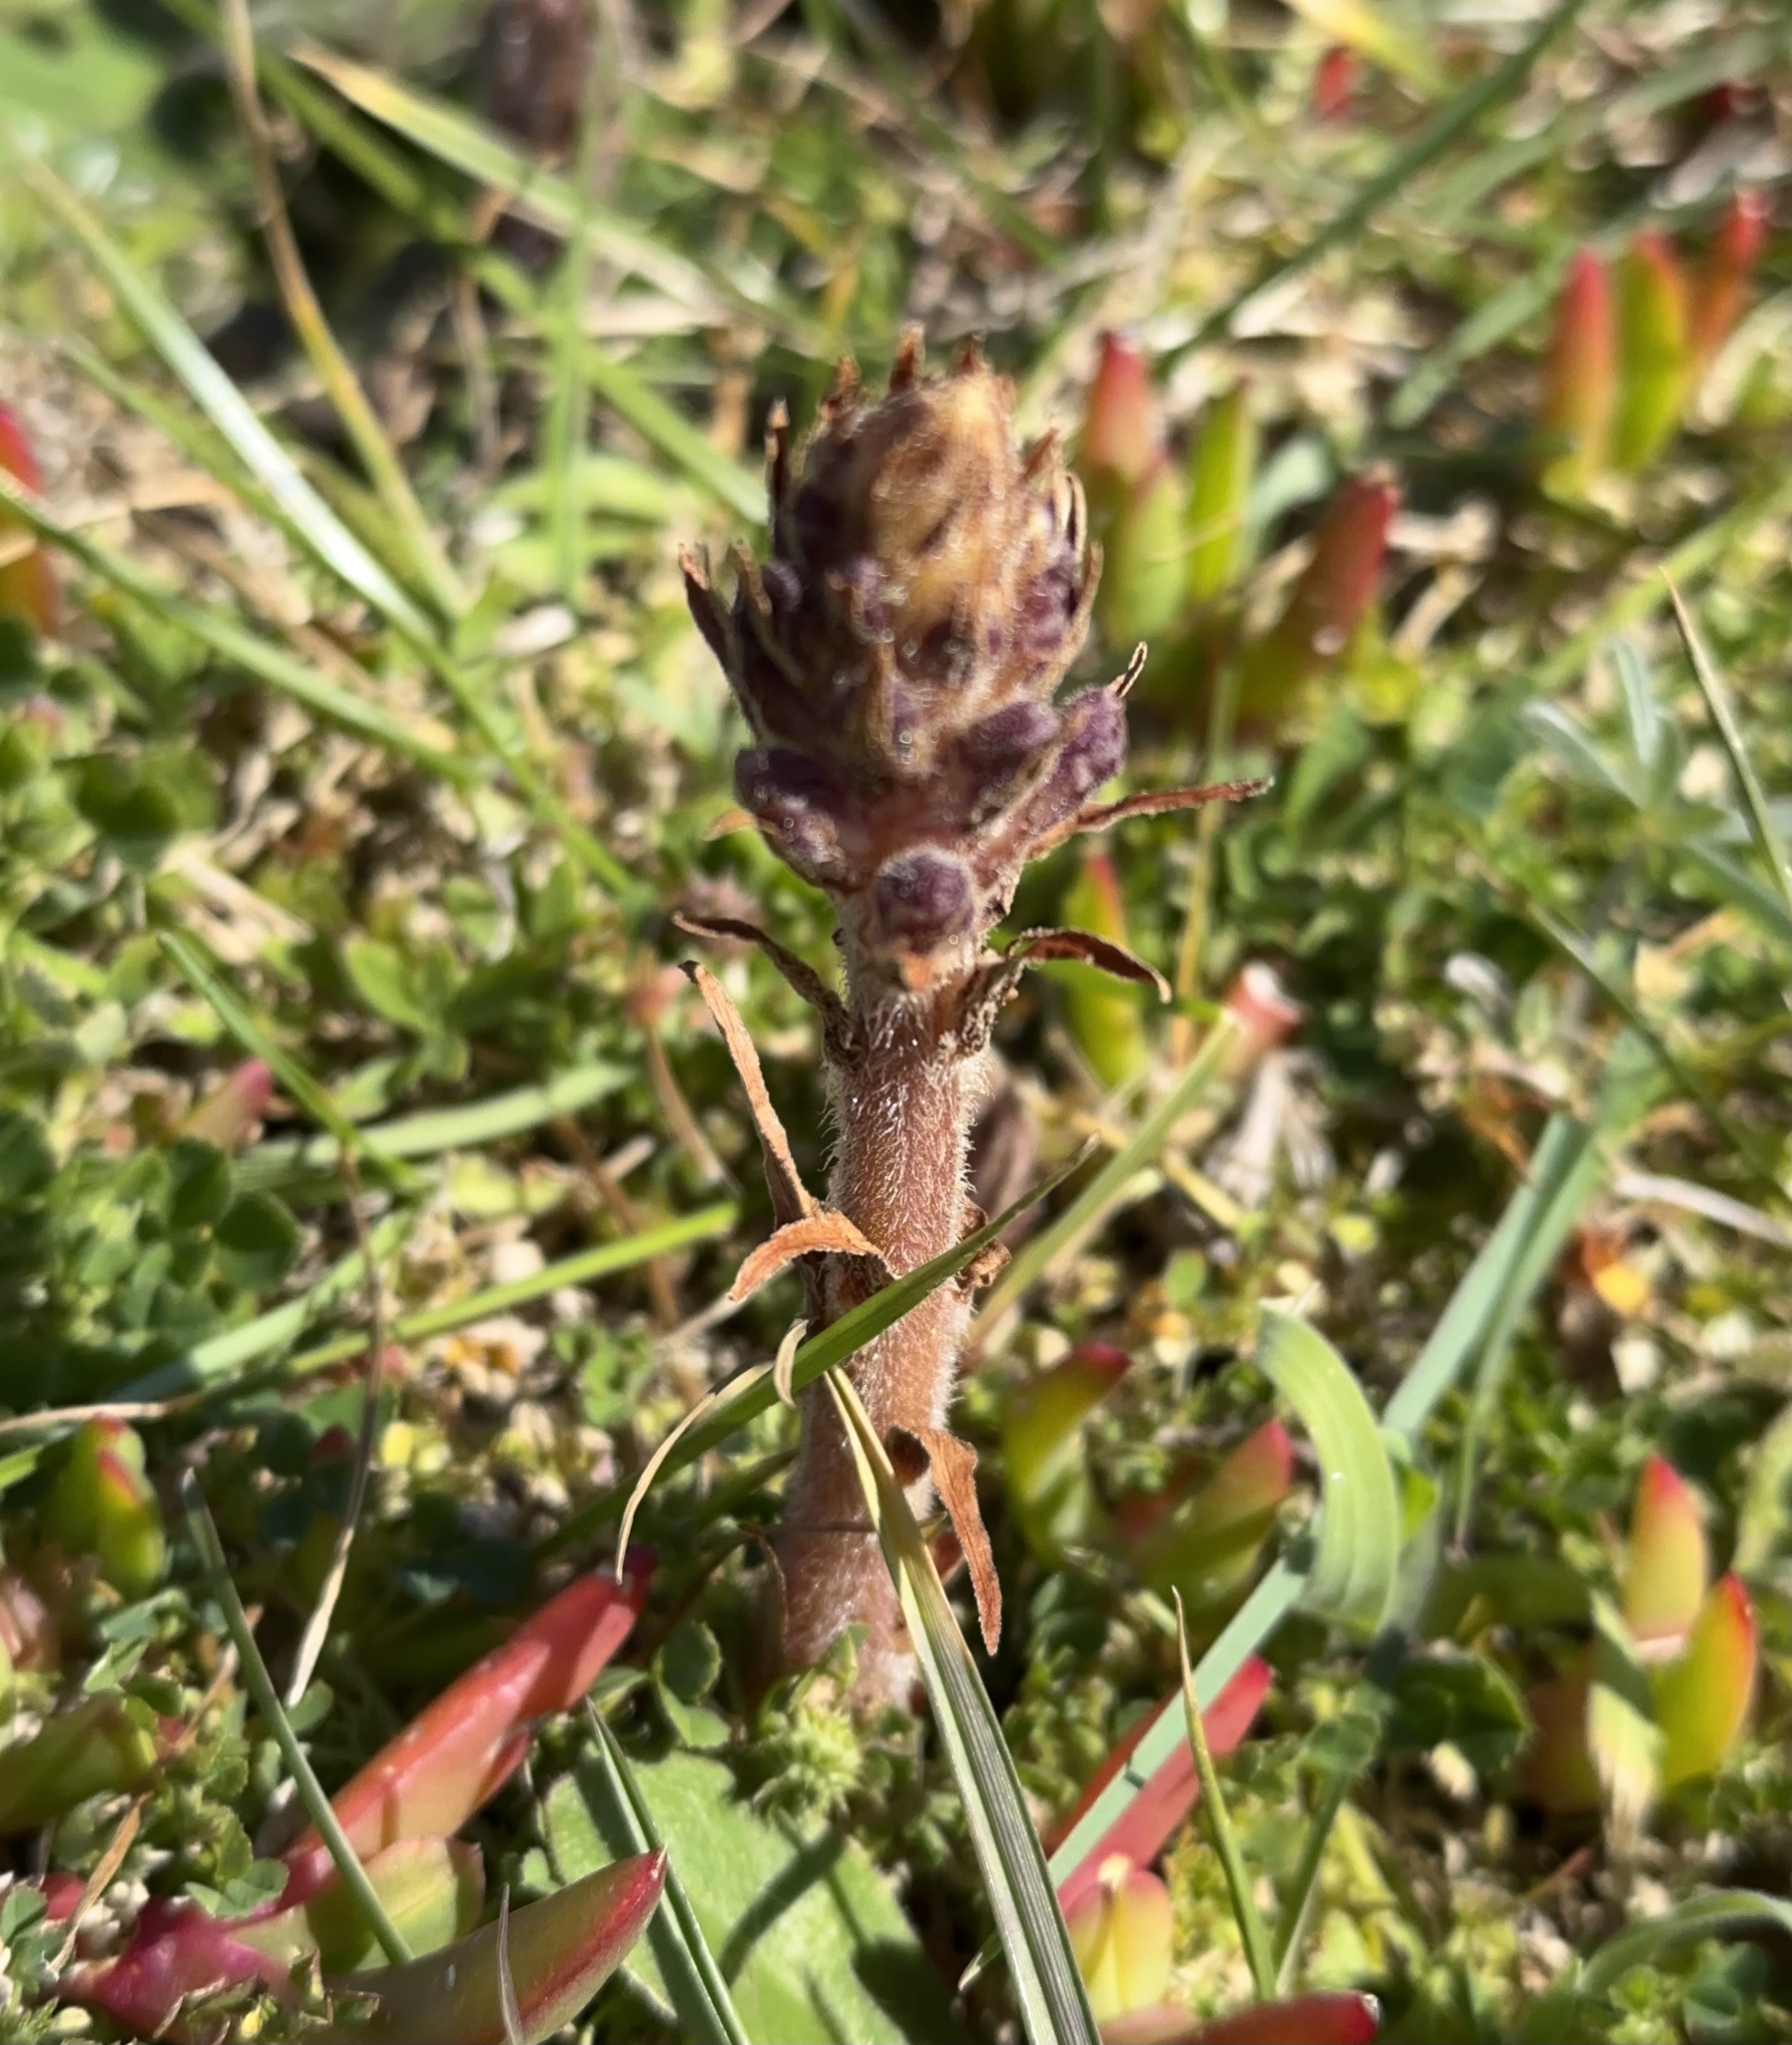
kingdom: Plantae
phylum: Tracheophyta
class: Magnoliopsida
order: Lamiales
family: Orobanchaceae
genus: Orobanche
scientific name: Orobanche minor
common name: Common broomrape
